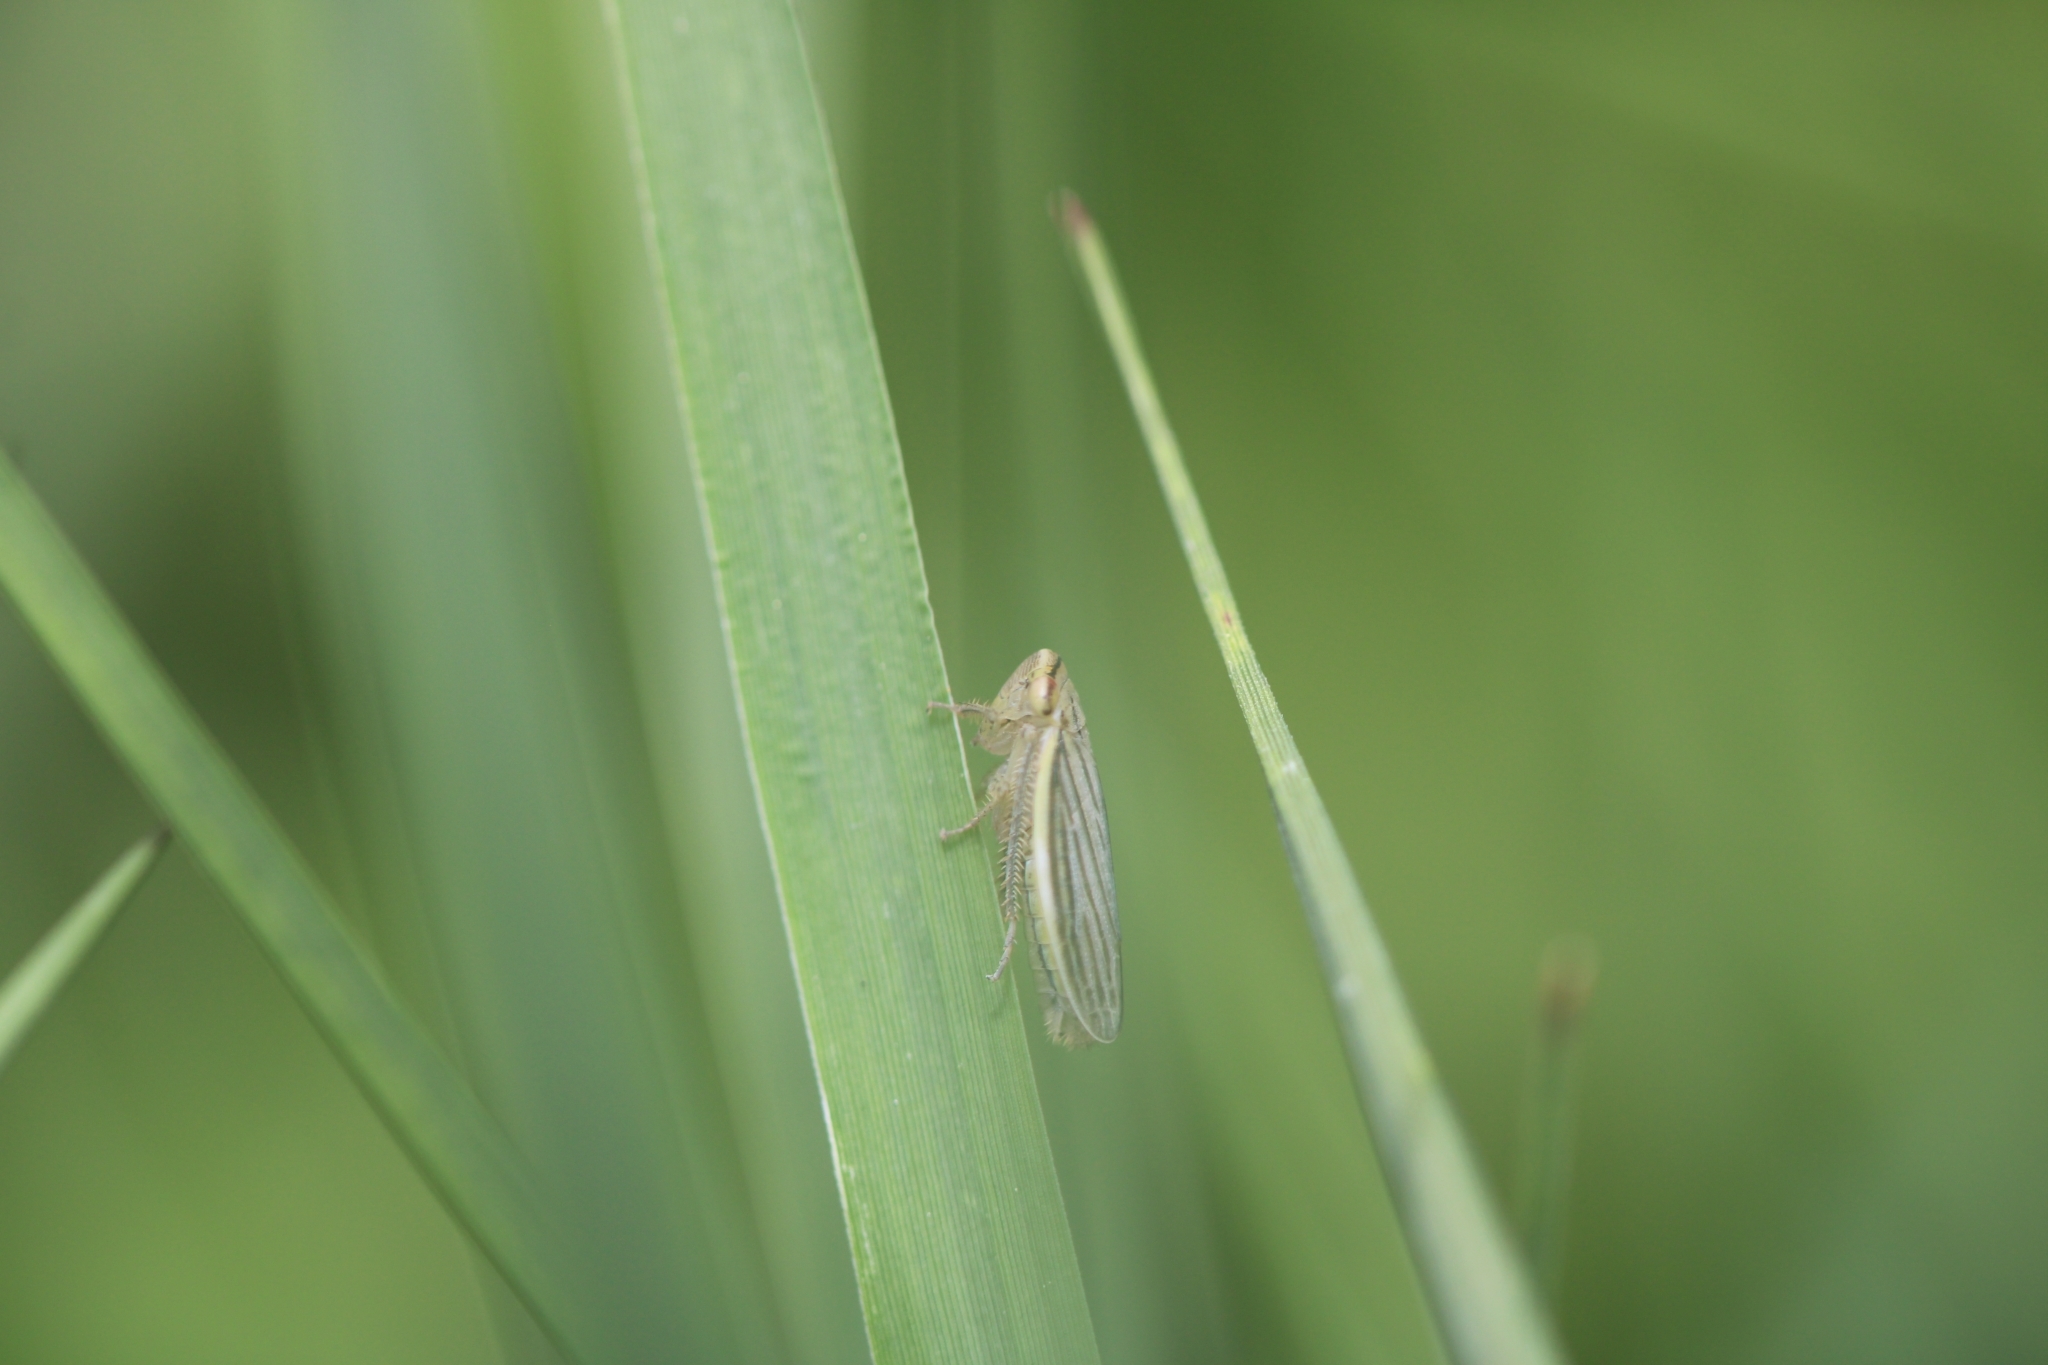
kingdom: Animalia
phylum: Arthropoda
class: Insecta
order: Hemiptera
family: Cicadellidae
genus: Athysanus
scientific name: Athysanus argentarius
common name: Silver leafhopper
